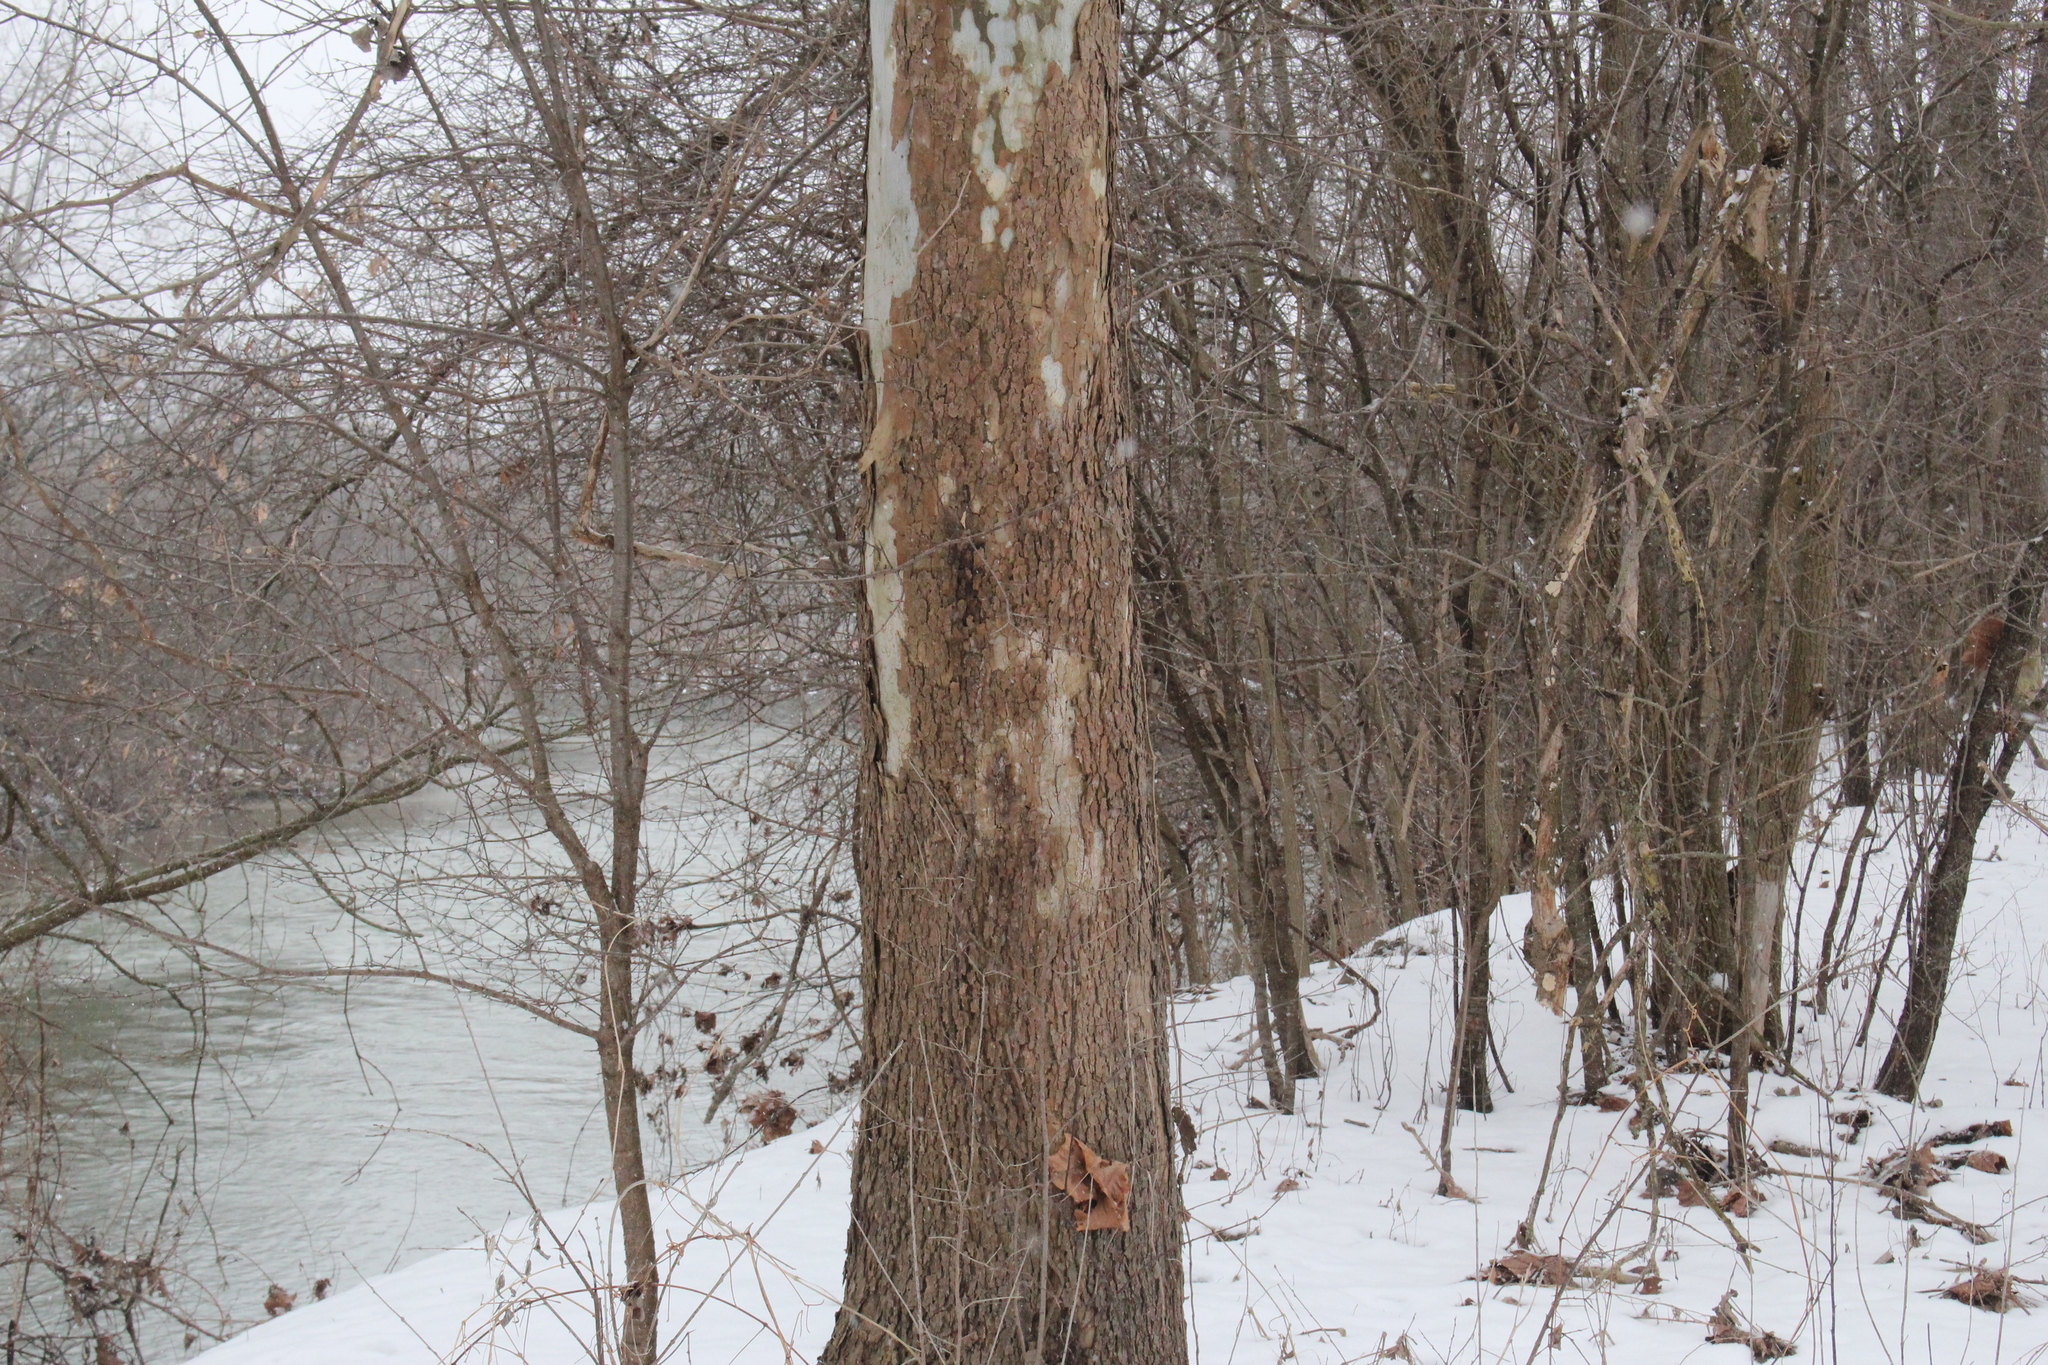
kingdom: Plantae
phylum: Tracheophyta
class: Magnoliopsida
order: Proteales
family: Platanaceae
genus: Platanus
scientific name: Platanus occidentalis
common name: American sycamore
